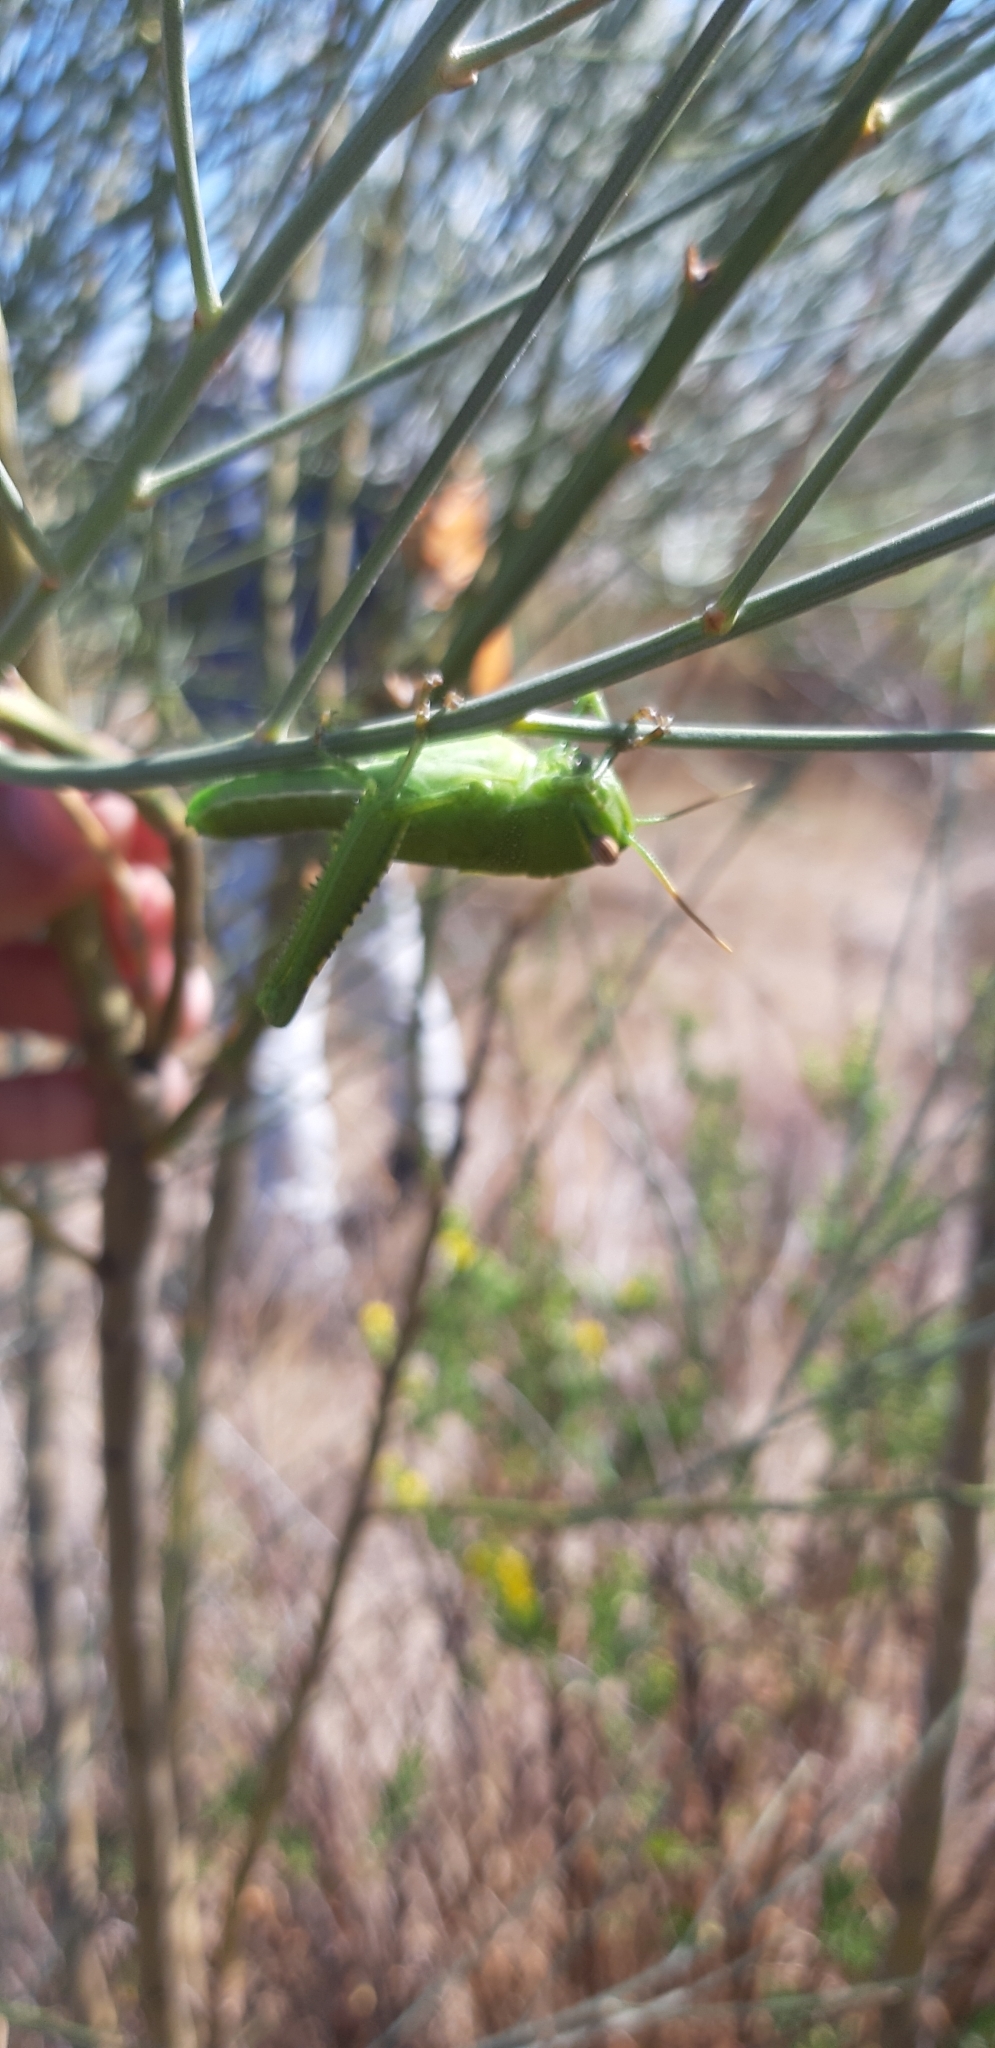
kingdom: Animalia
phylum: Arthropoda
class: Insecta
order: Orthoptera
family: Acrididae
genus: Anacridium
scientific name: Anacridium aegyptium
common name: Egyptian grasshopper
